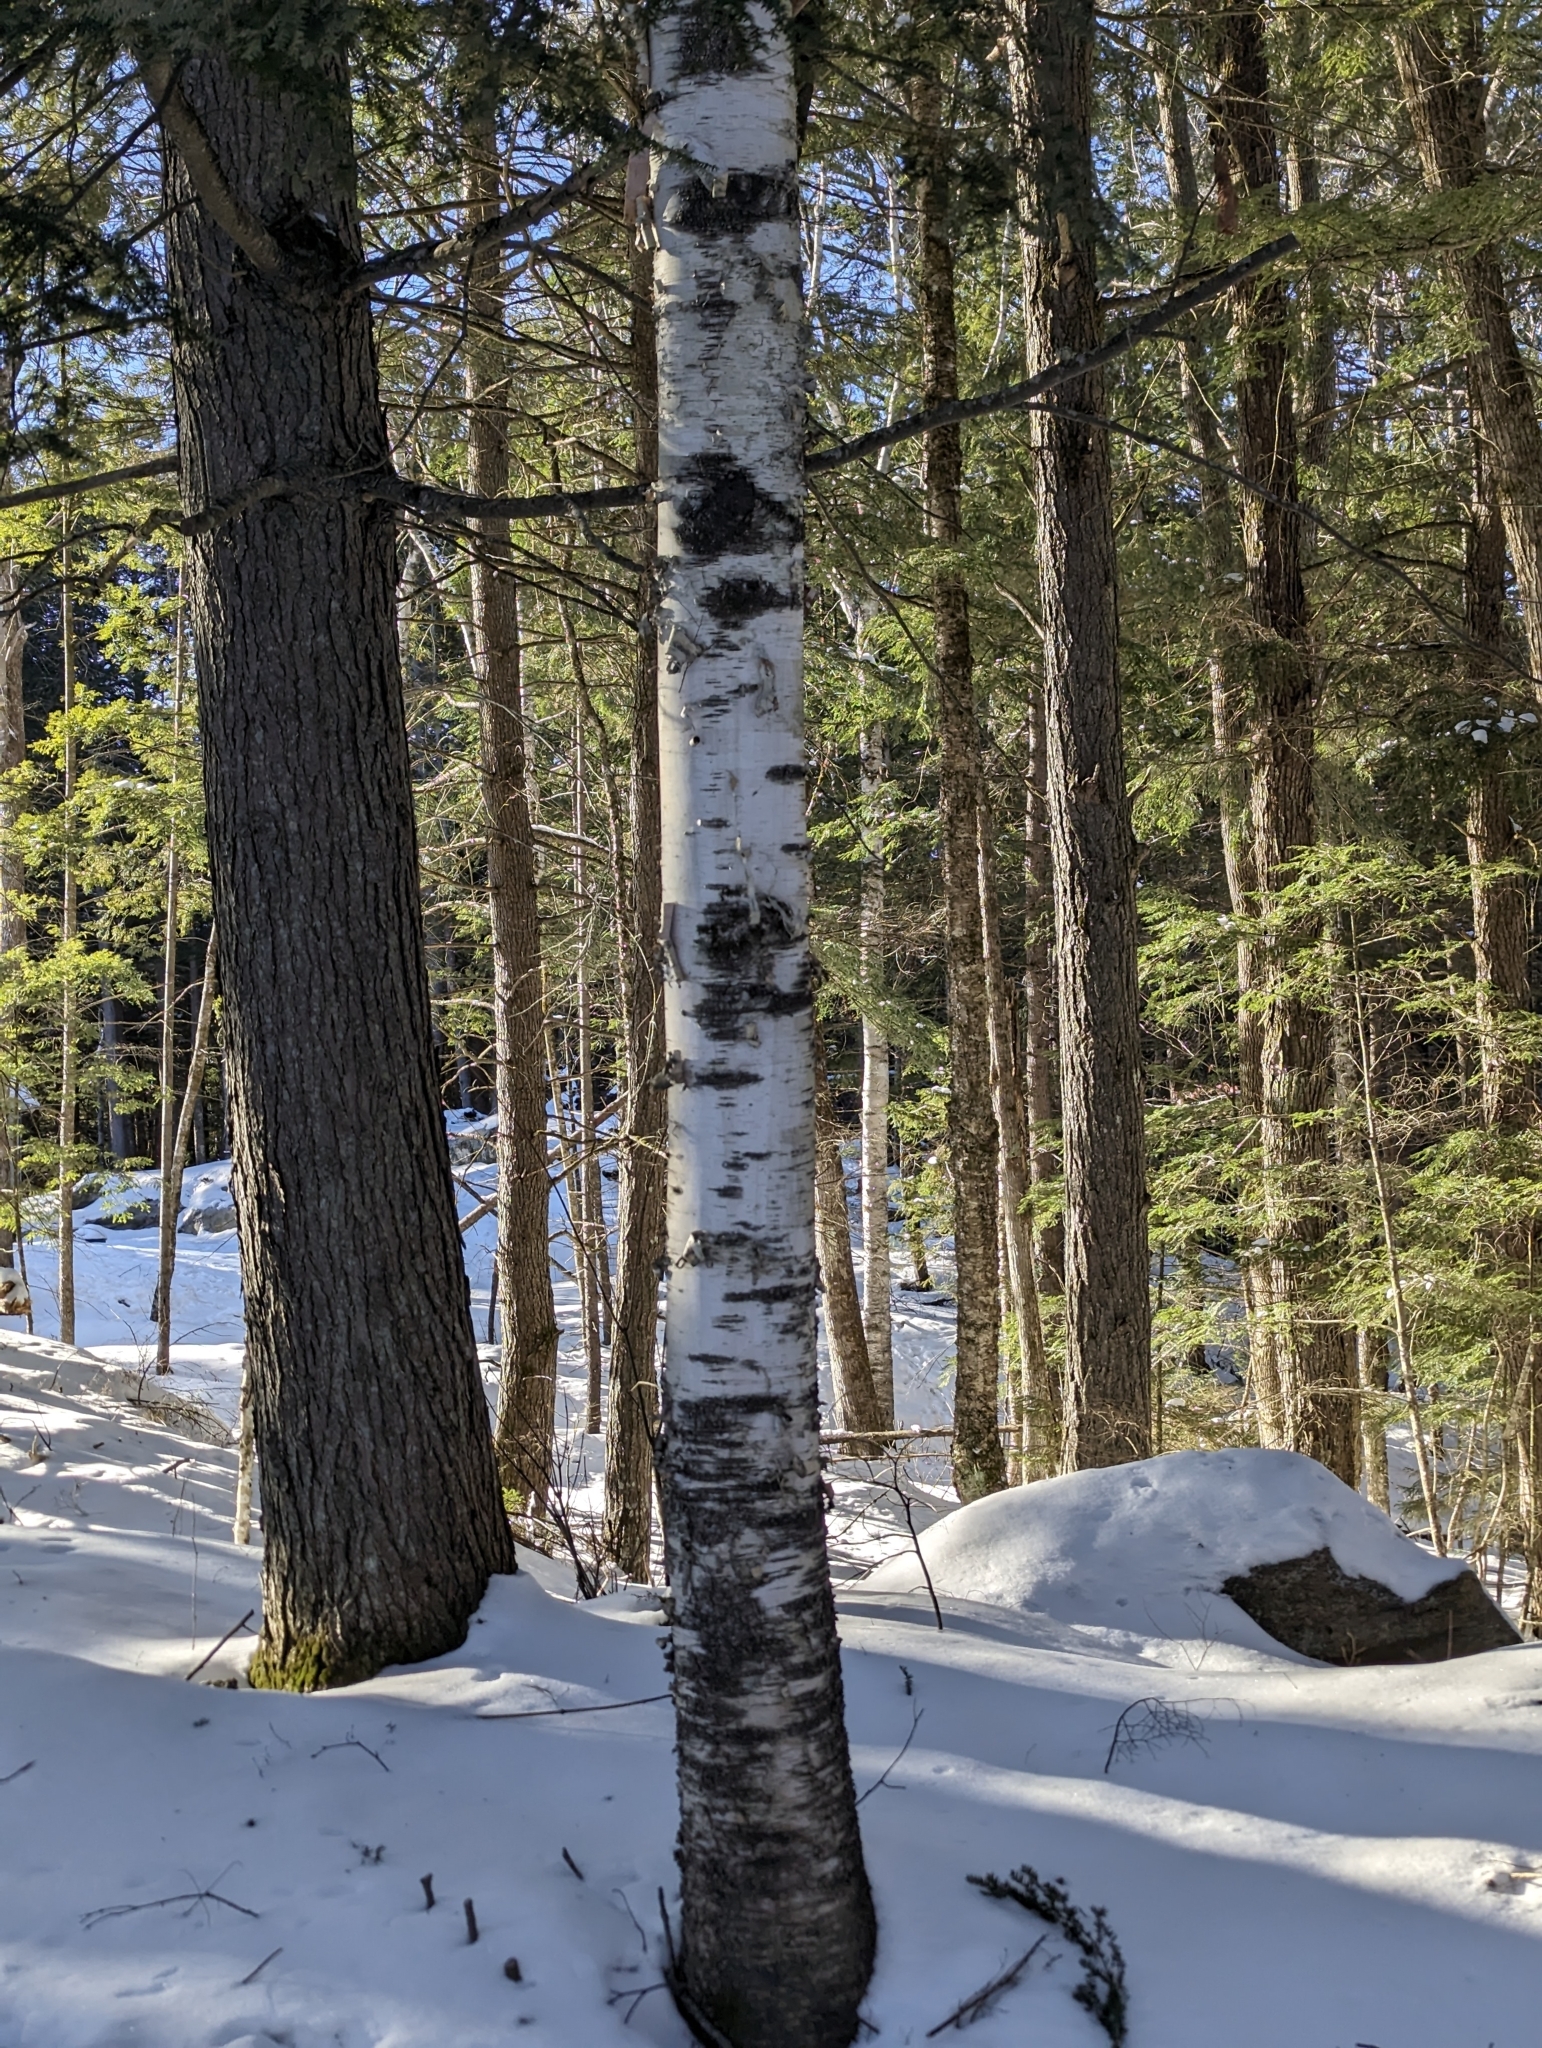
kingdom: Plantae
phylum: Tracheophyta
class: Magnoliopsida
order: Fagales
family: Betulaceae
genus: Betula
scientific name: Betula papyrifera
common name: Paper birch
